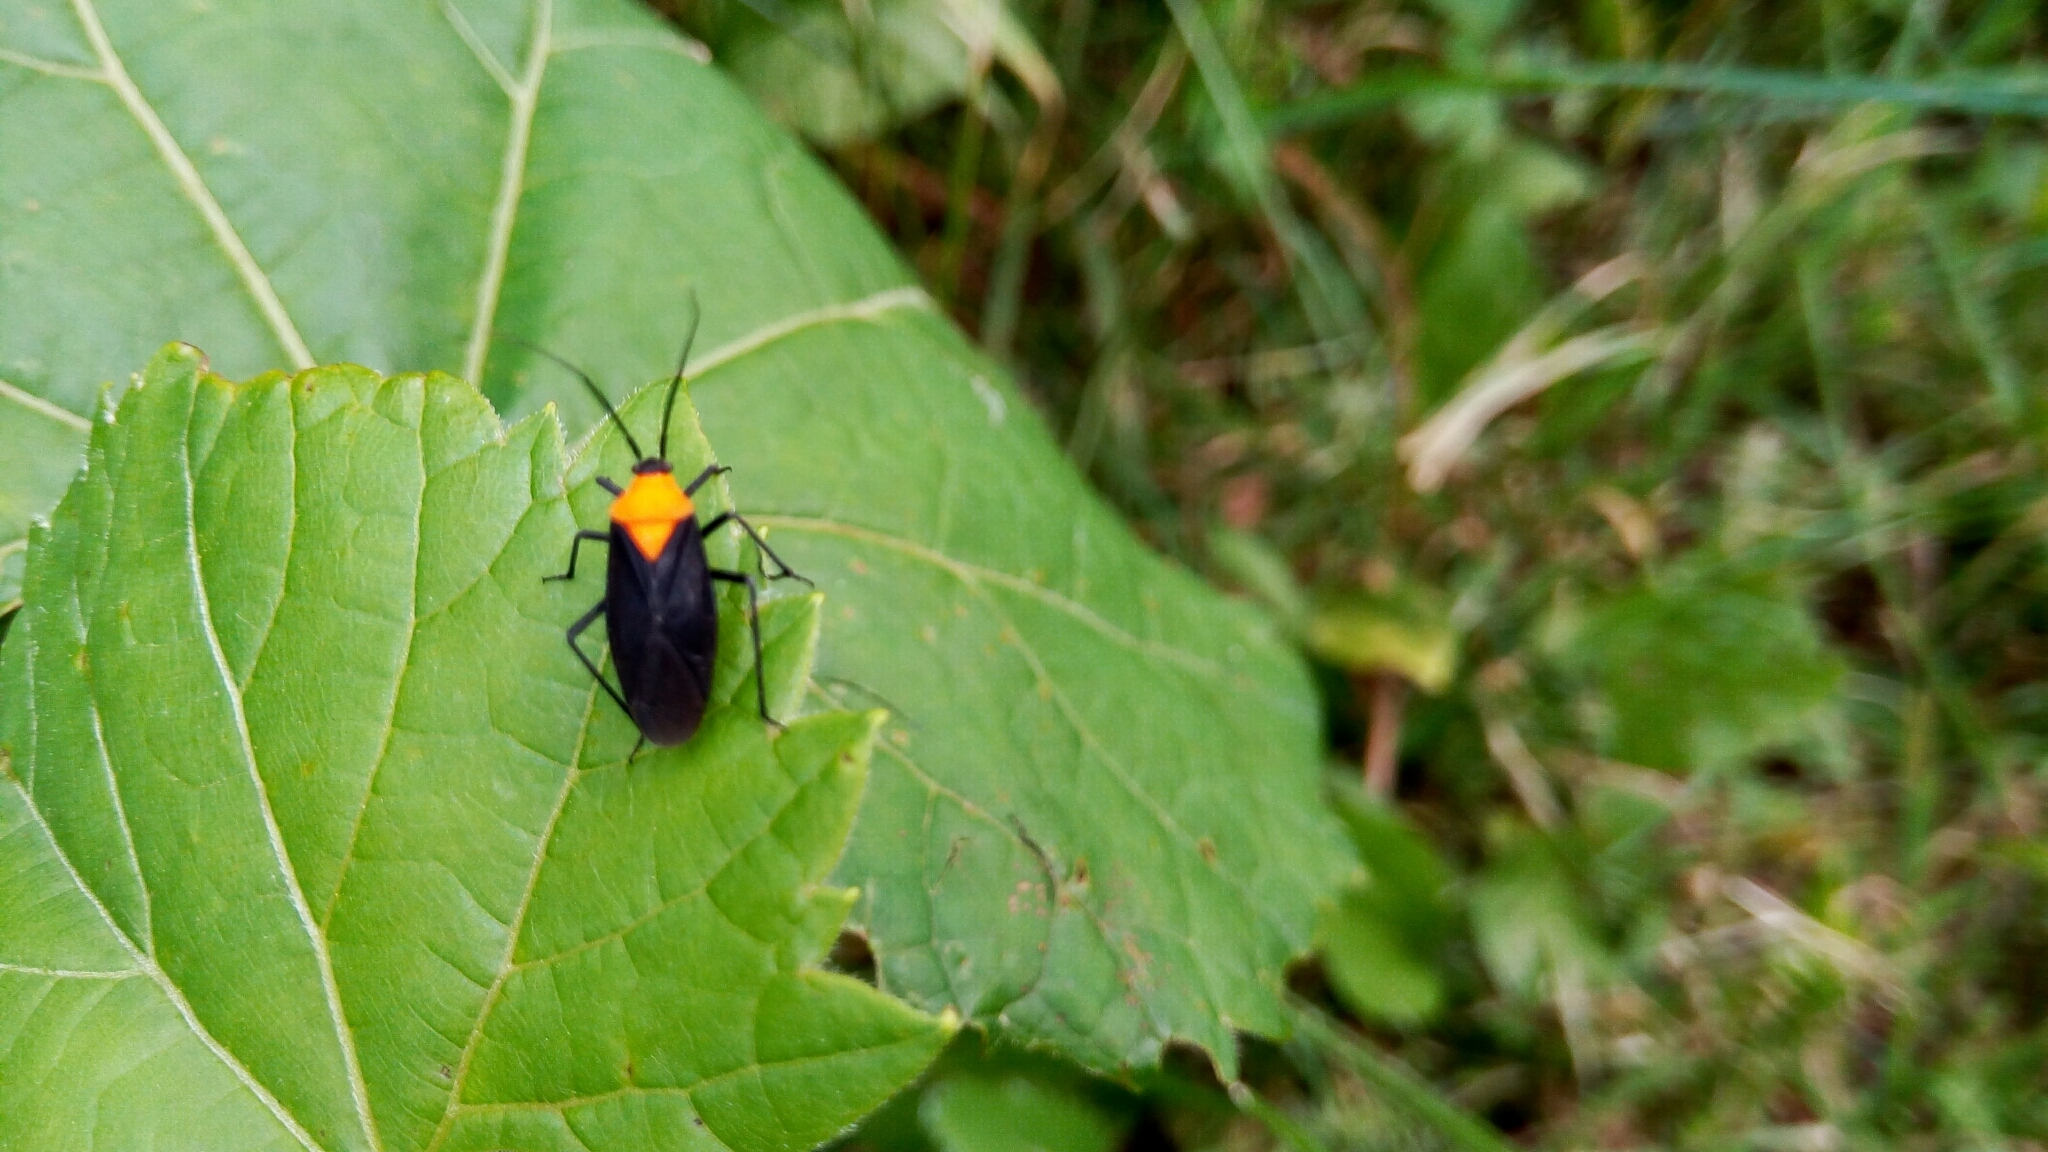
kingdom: Animalia
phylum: Arthropoda
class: Insecta
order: Hemiptera
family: Miridae
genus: Prepops
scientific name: Prepops insitivus
